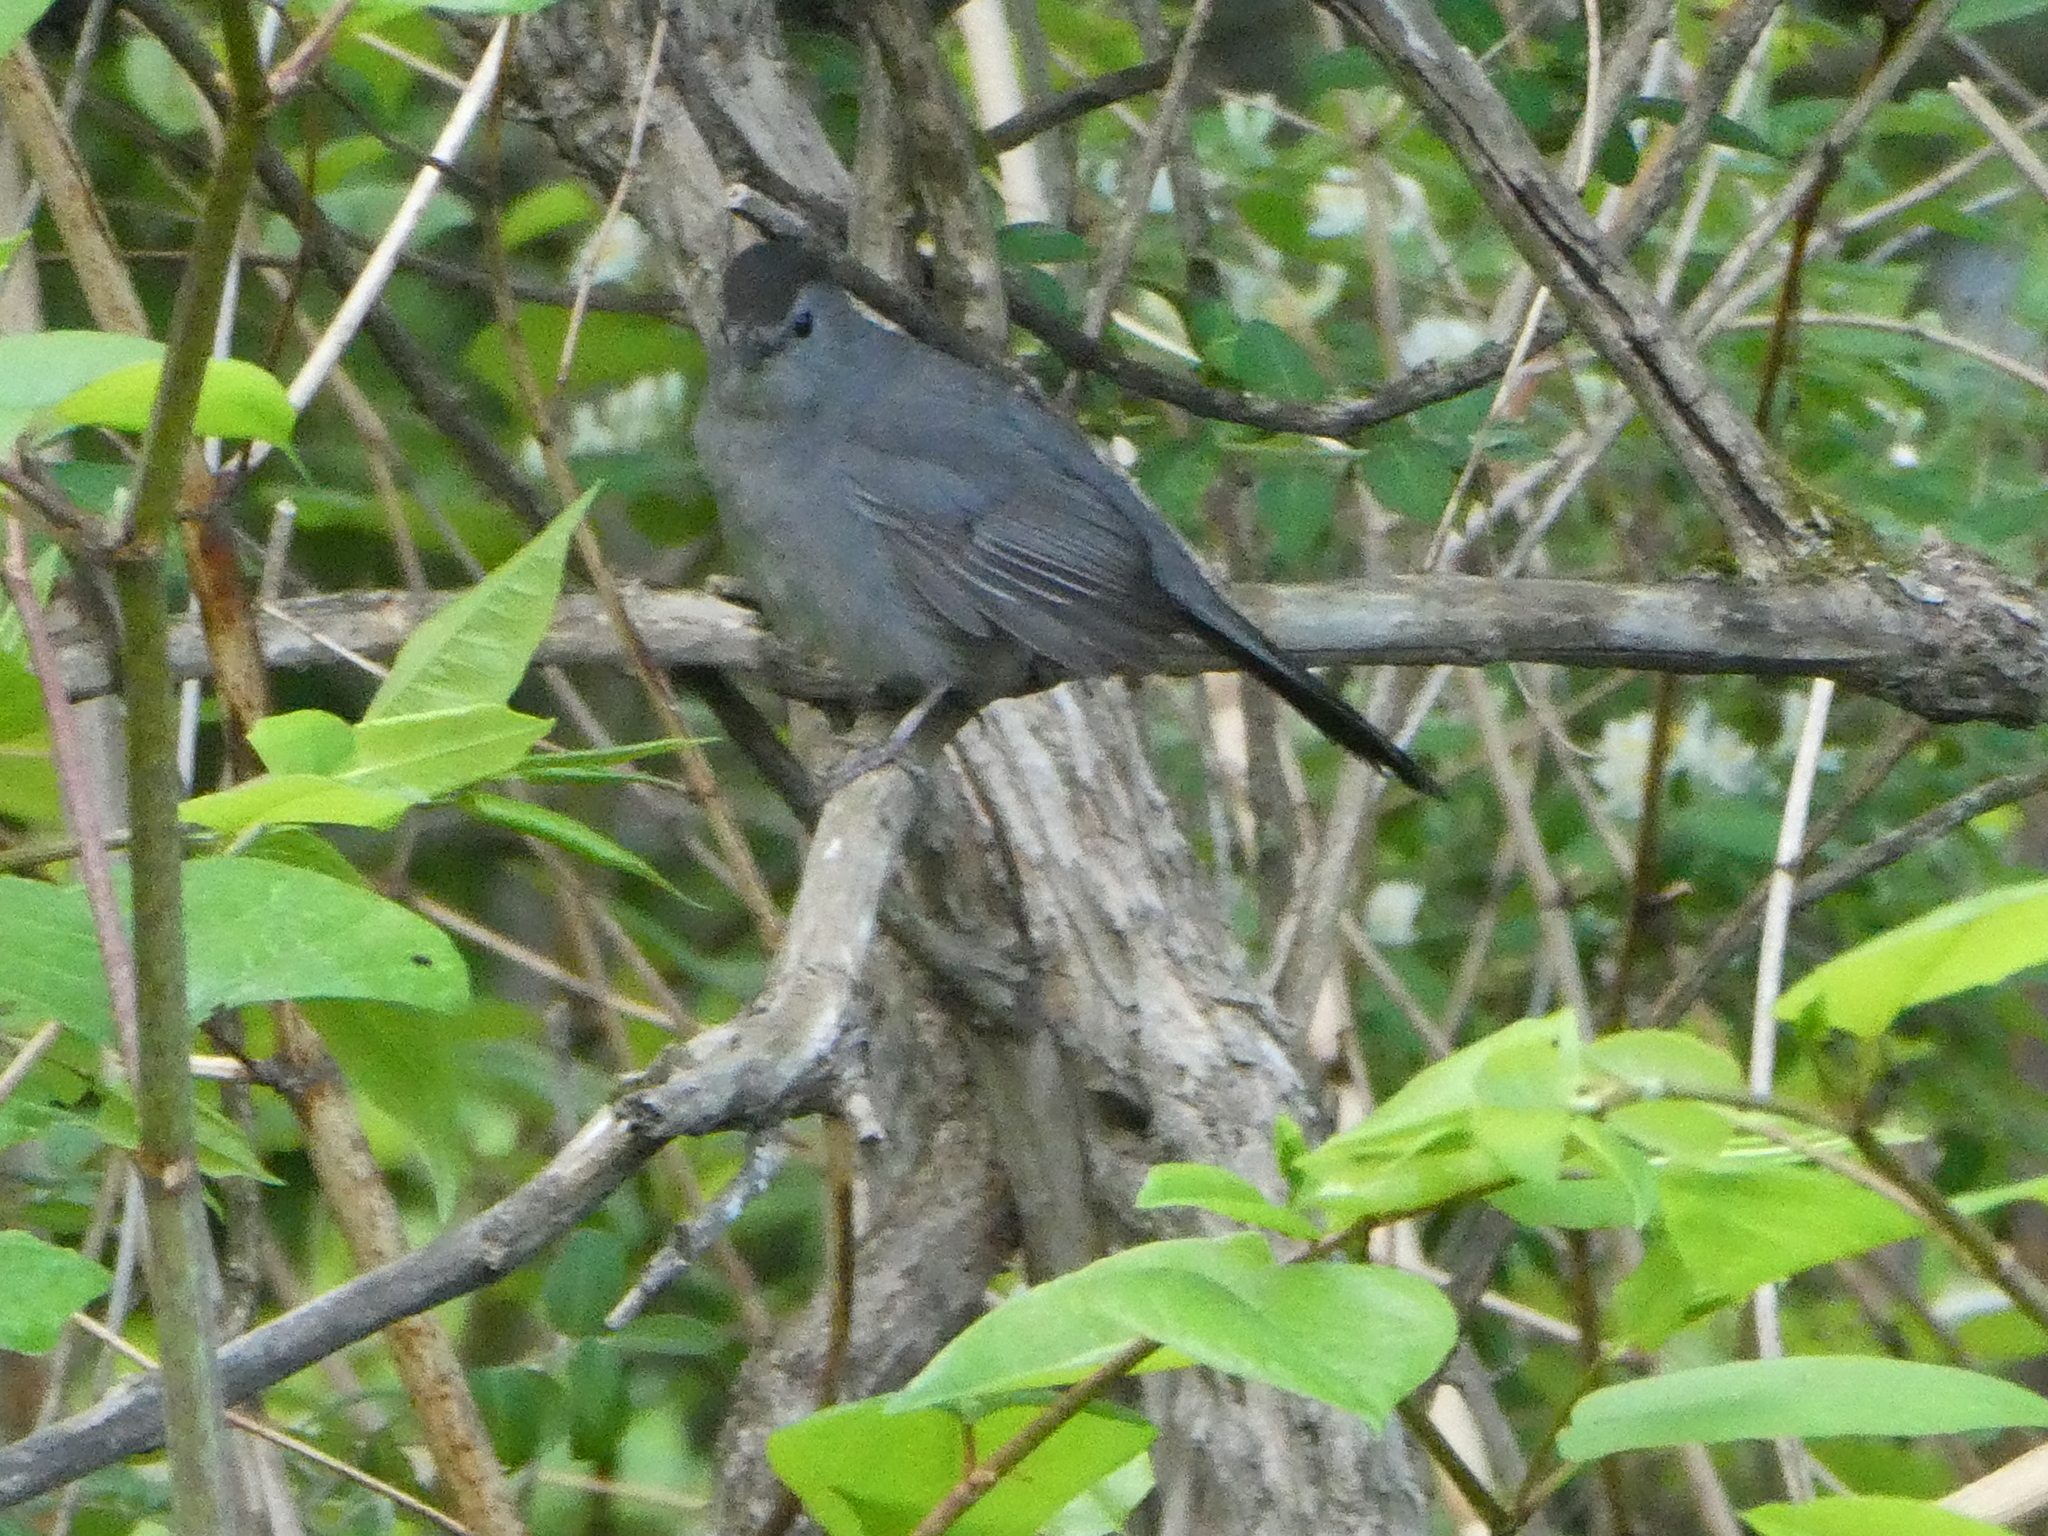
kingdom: Animalia
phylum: Chordata
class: Aves
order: Passeriformes
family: Mimidae
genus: Dumetella
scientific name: Dumetella carolinensis
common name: Gray catbird
